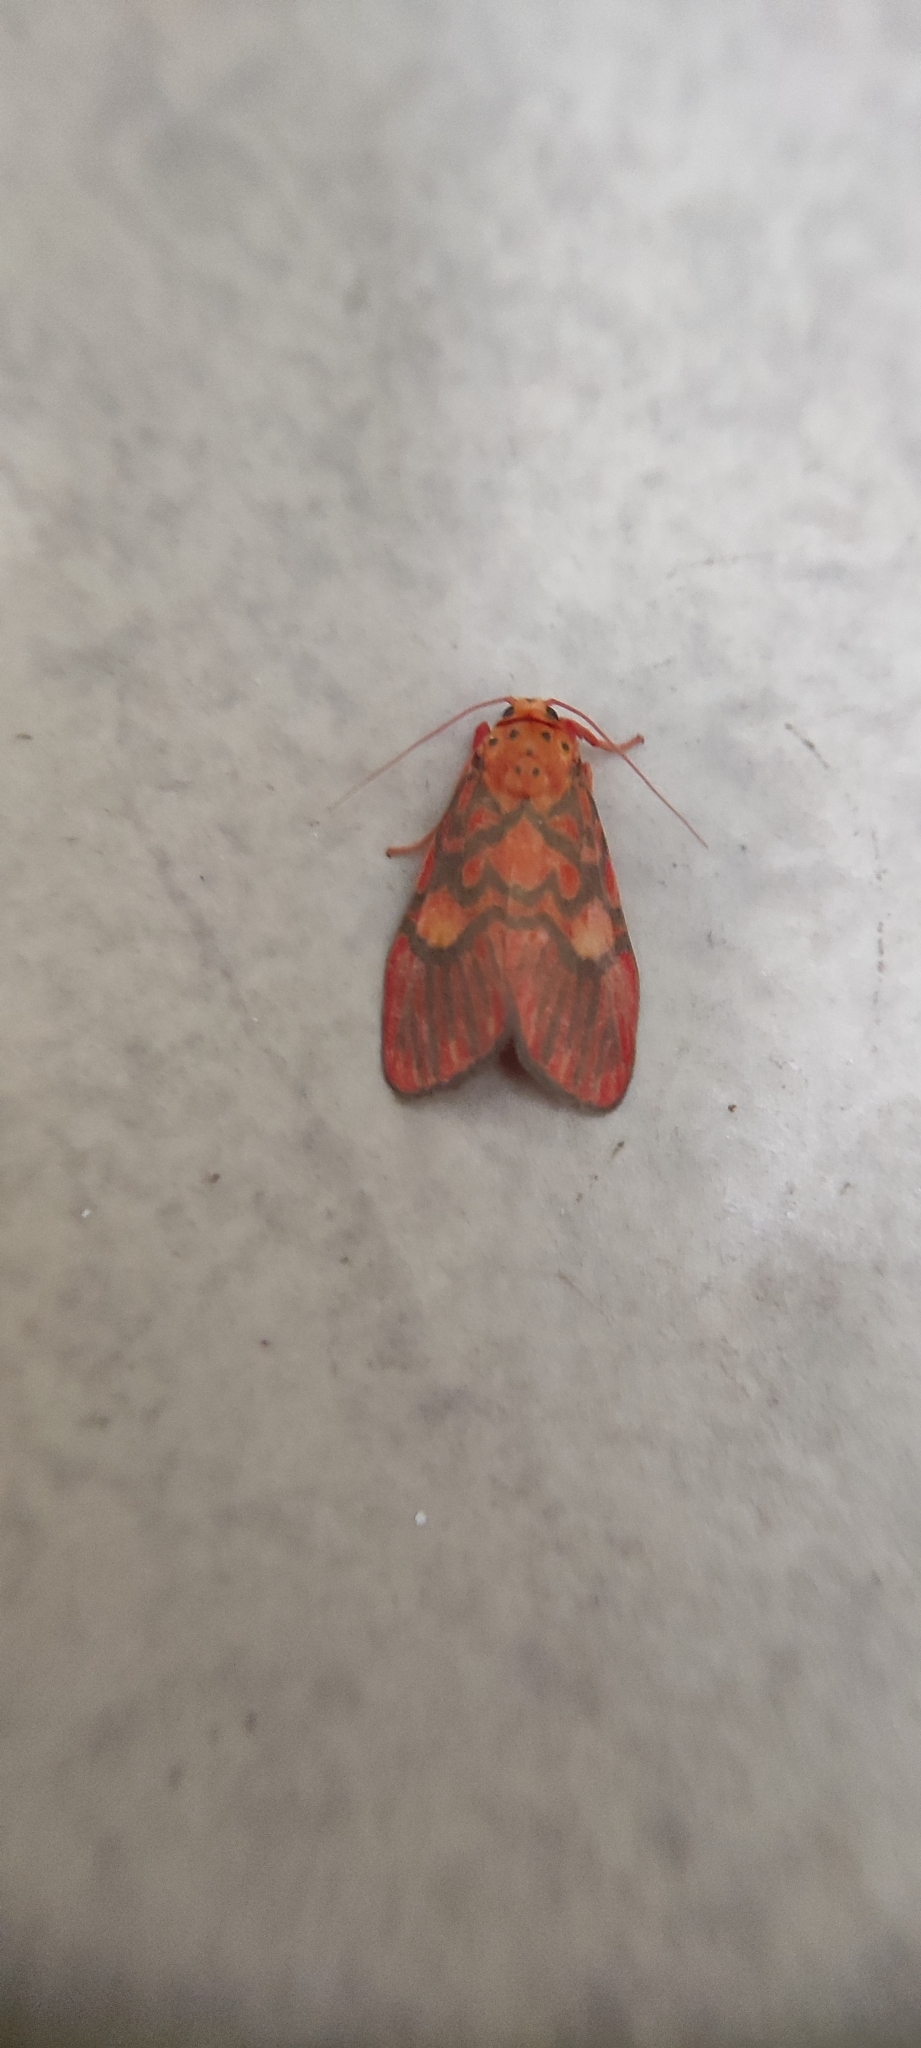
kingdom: Animalia
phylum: Arthropoda
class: Insecta
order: Lepidoptera
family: Erebidae
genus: Ammatho
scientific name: Ammatho cuneonotatus
